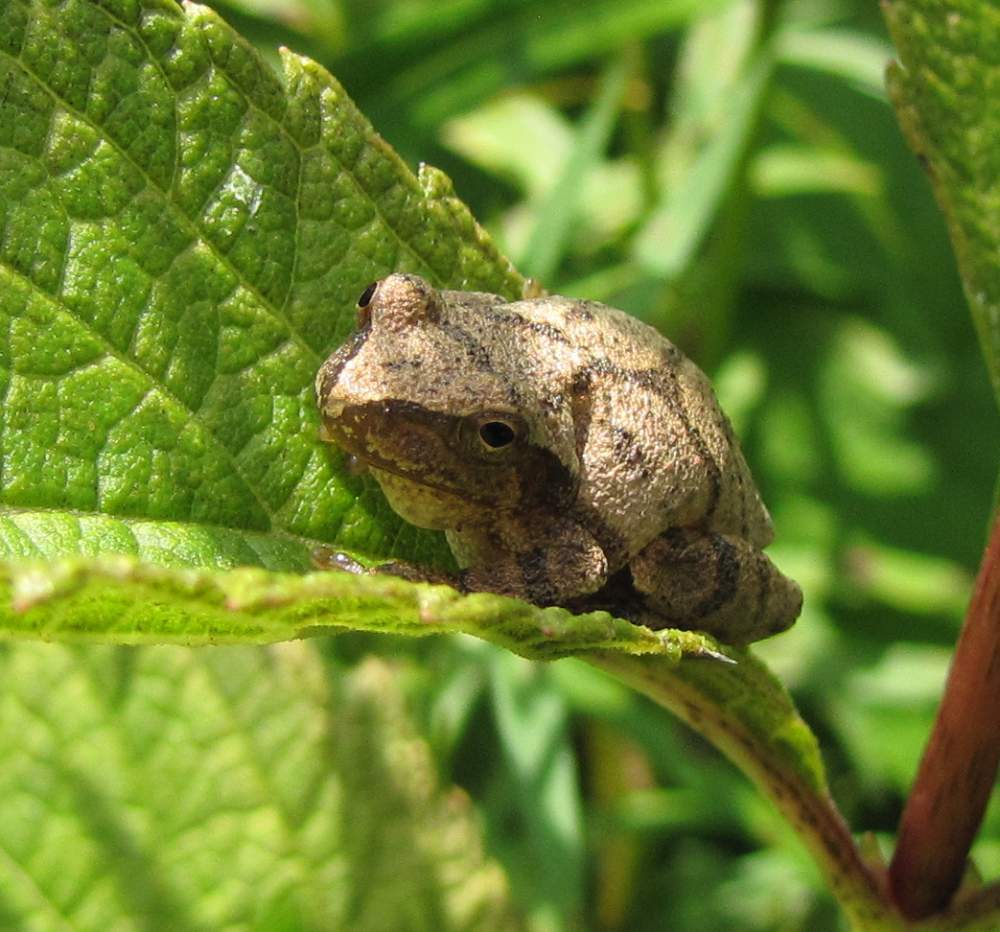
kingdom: Animalia
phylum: Chordata
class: Amphibia
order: Anura
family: Hylidae
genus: Pseudacris
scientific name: Pseudacris crucifer
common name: Spring peeper
